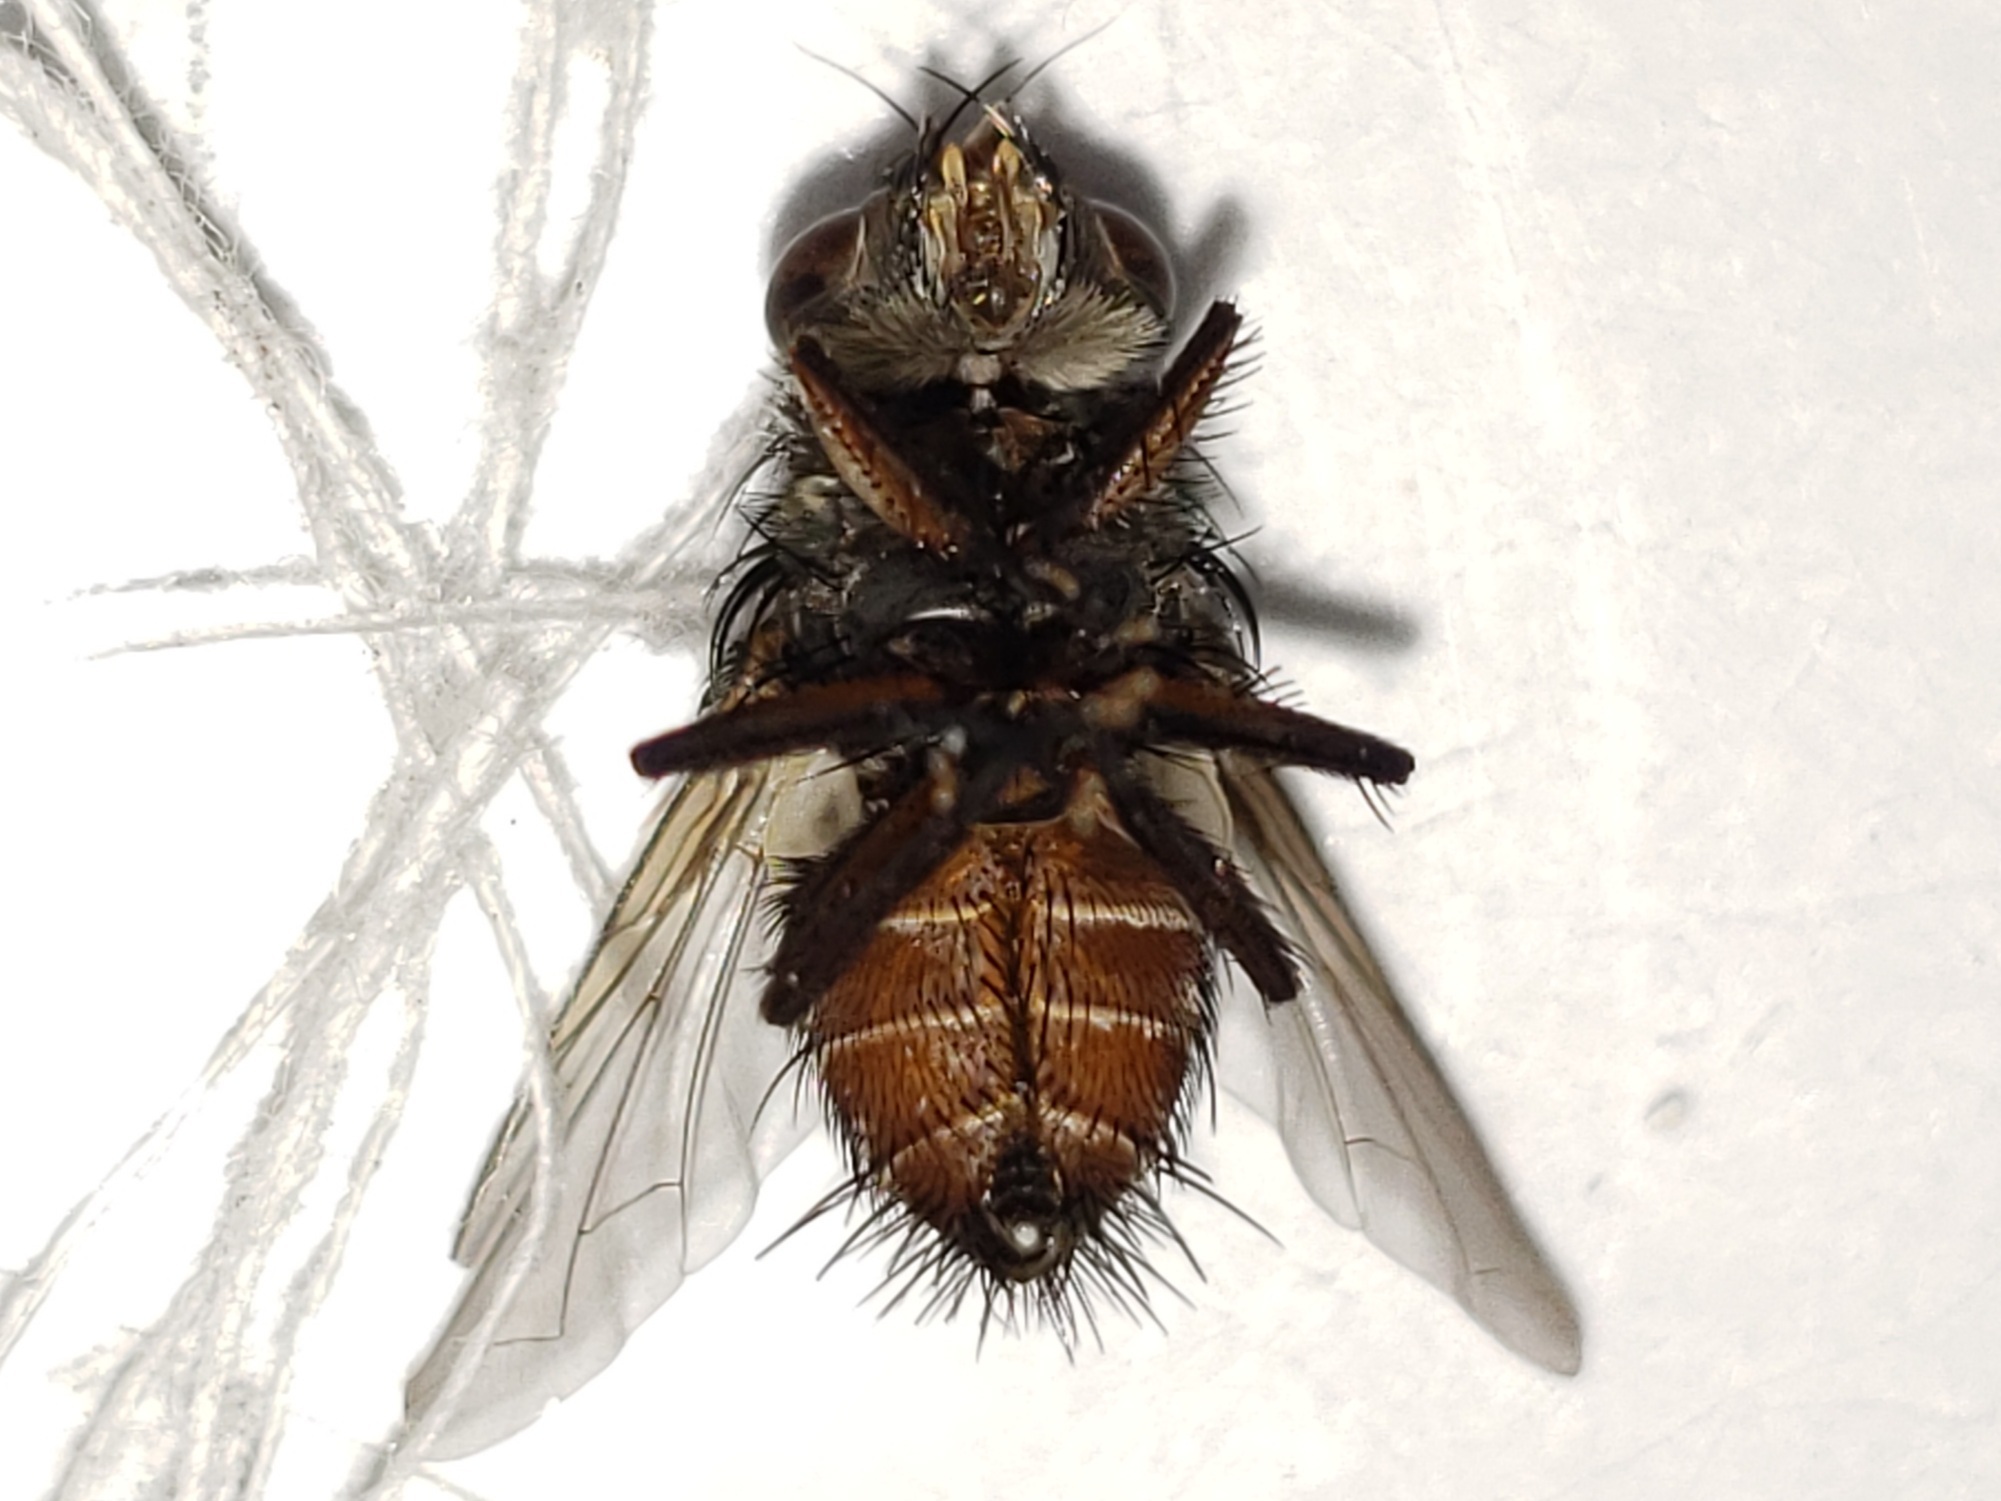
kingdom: Animalia
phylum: Arthropoda
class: Insecta
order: Diptera
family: Tachinidae
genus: Lespesia
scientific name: Lespesia rubripes
